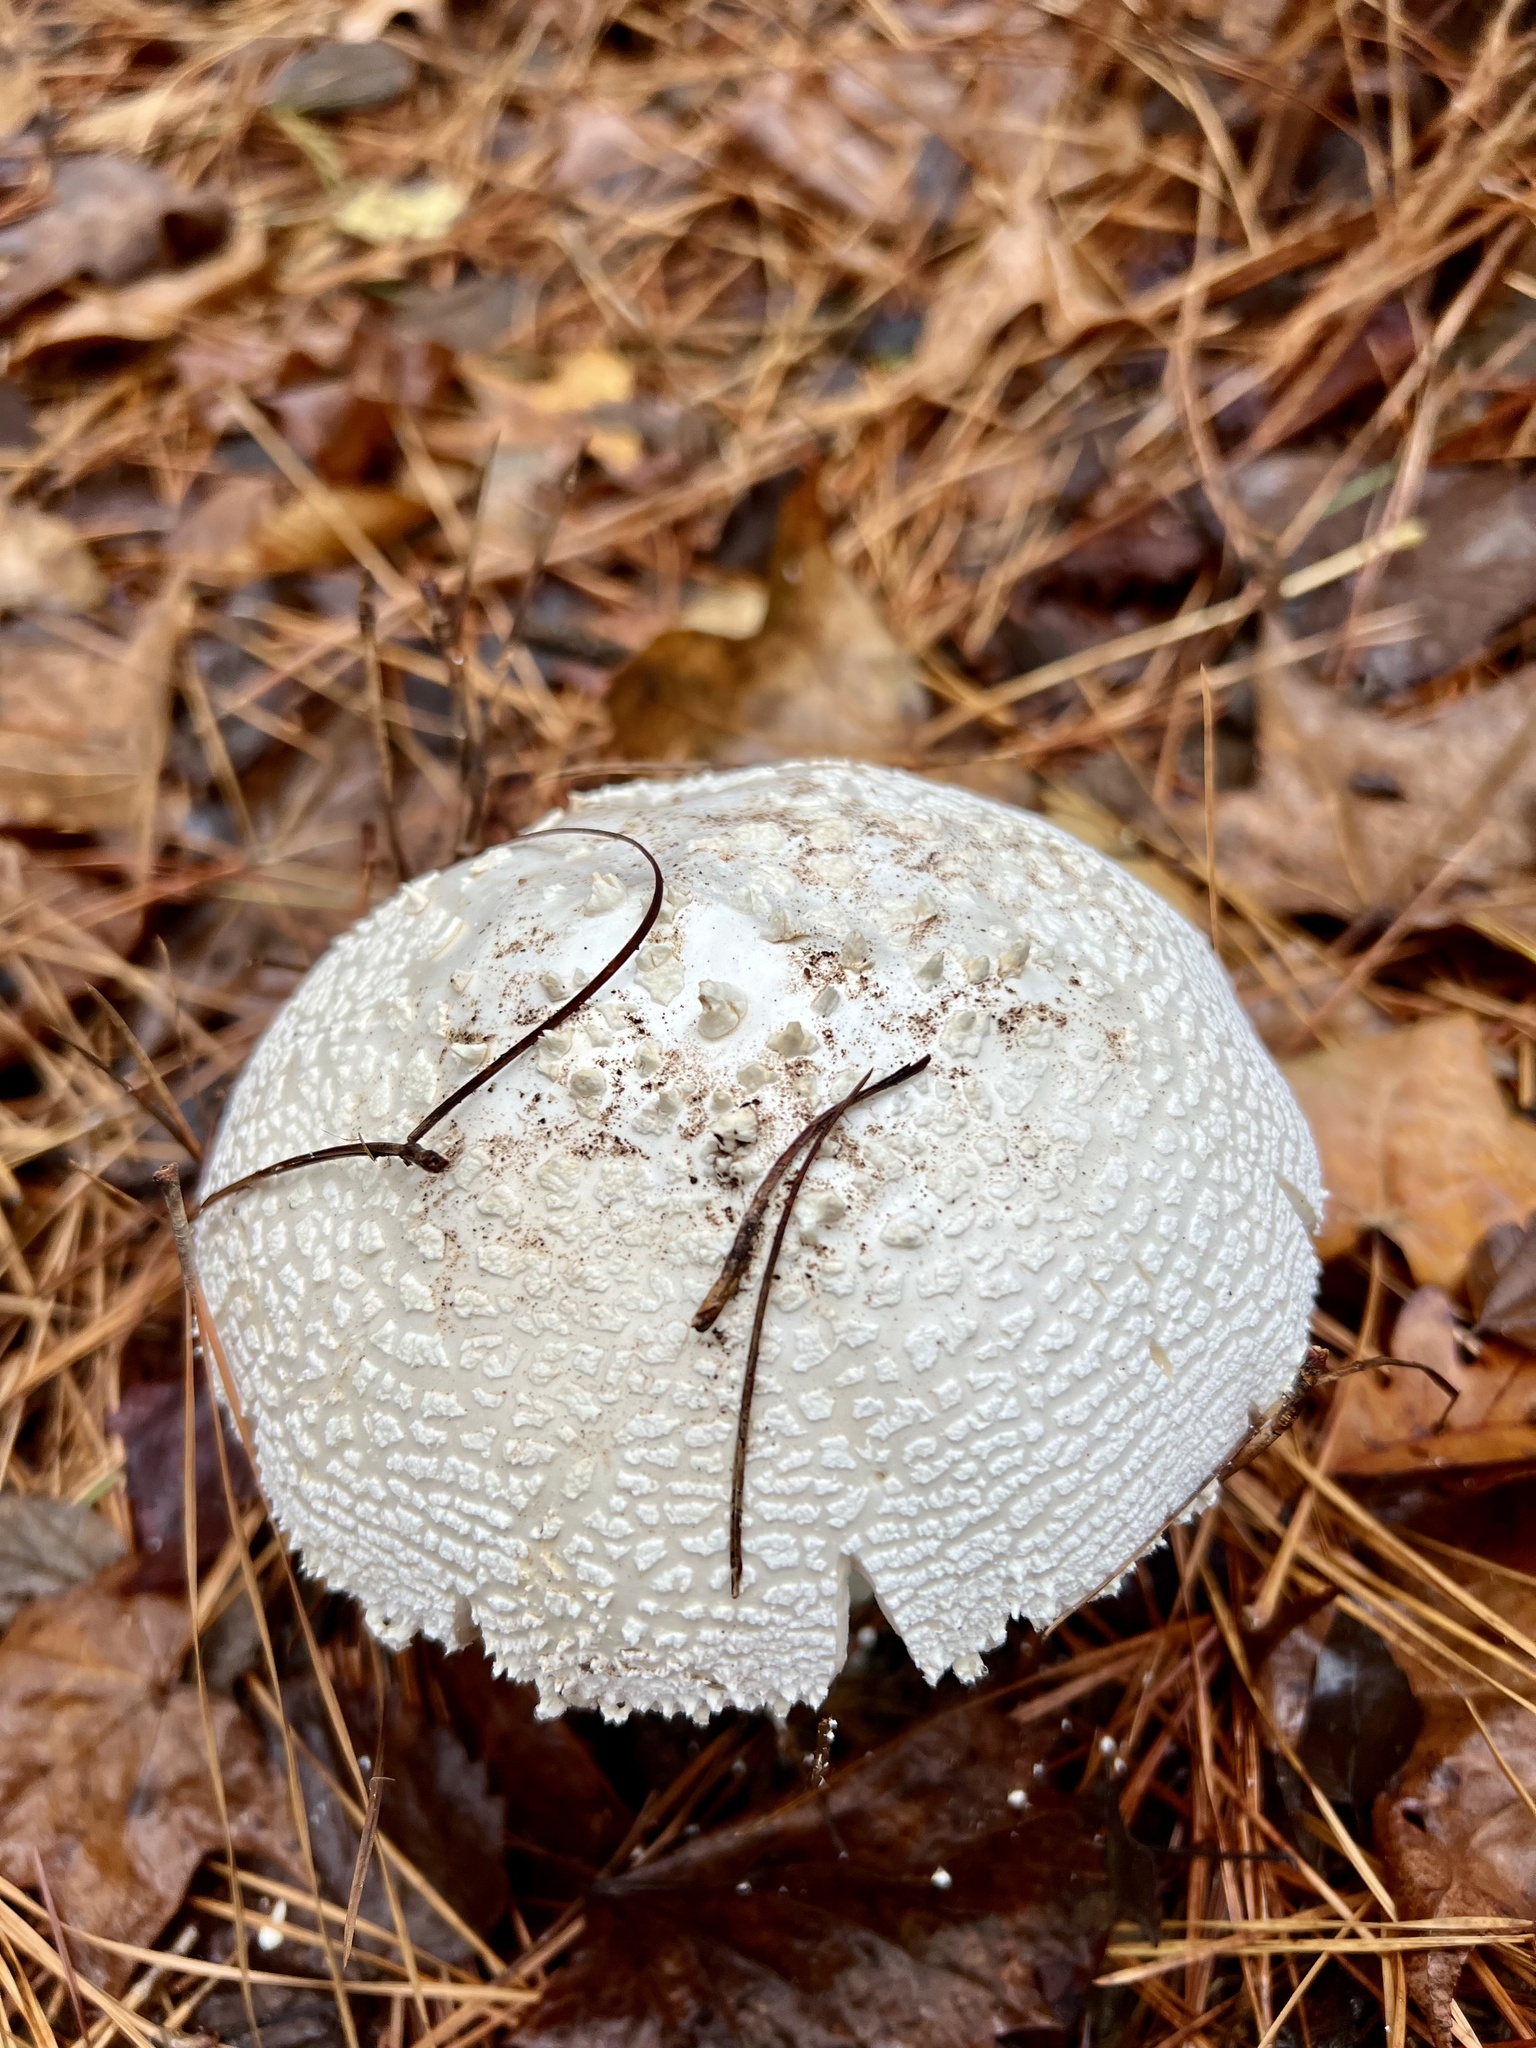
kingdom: Fungi
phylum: Basidiomycota
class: Agaricomycetes
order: Agaricales
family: Amanitaceae
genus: Amanita
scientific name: Amanita polypyramis
